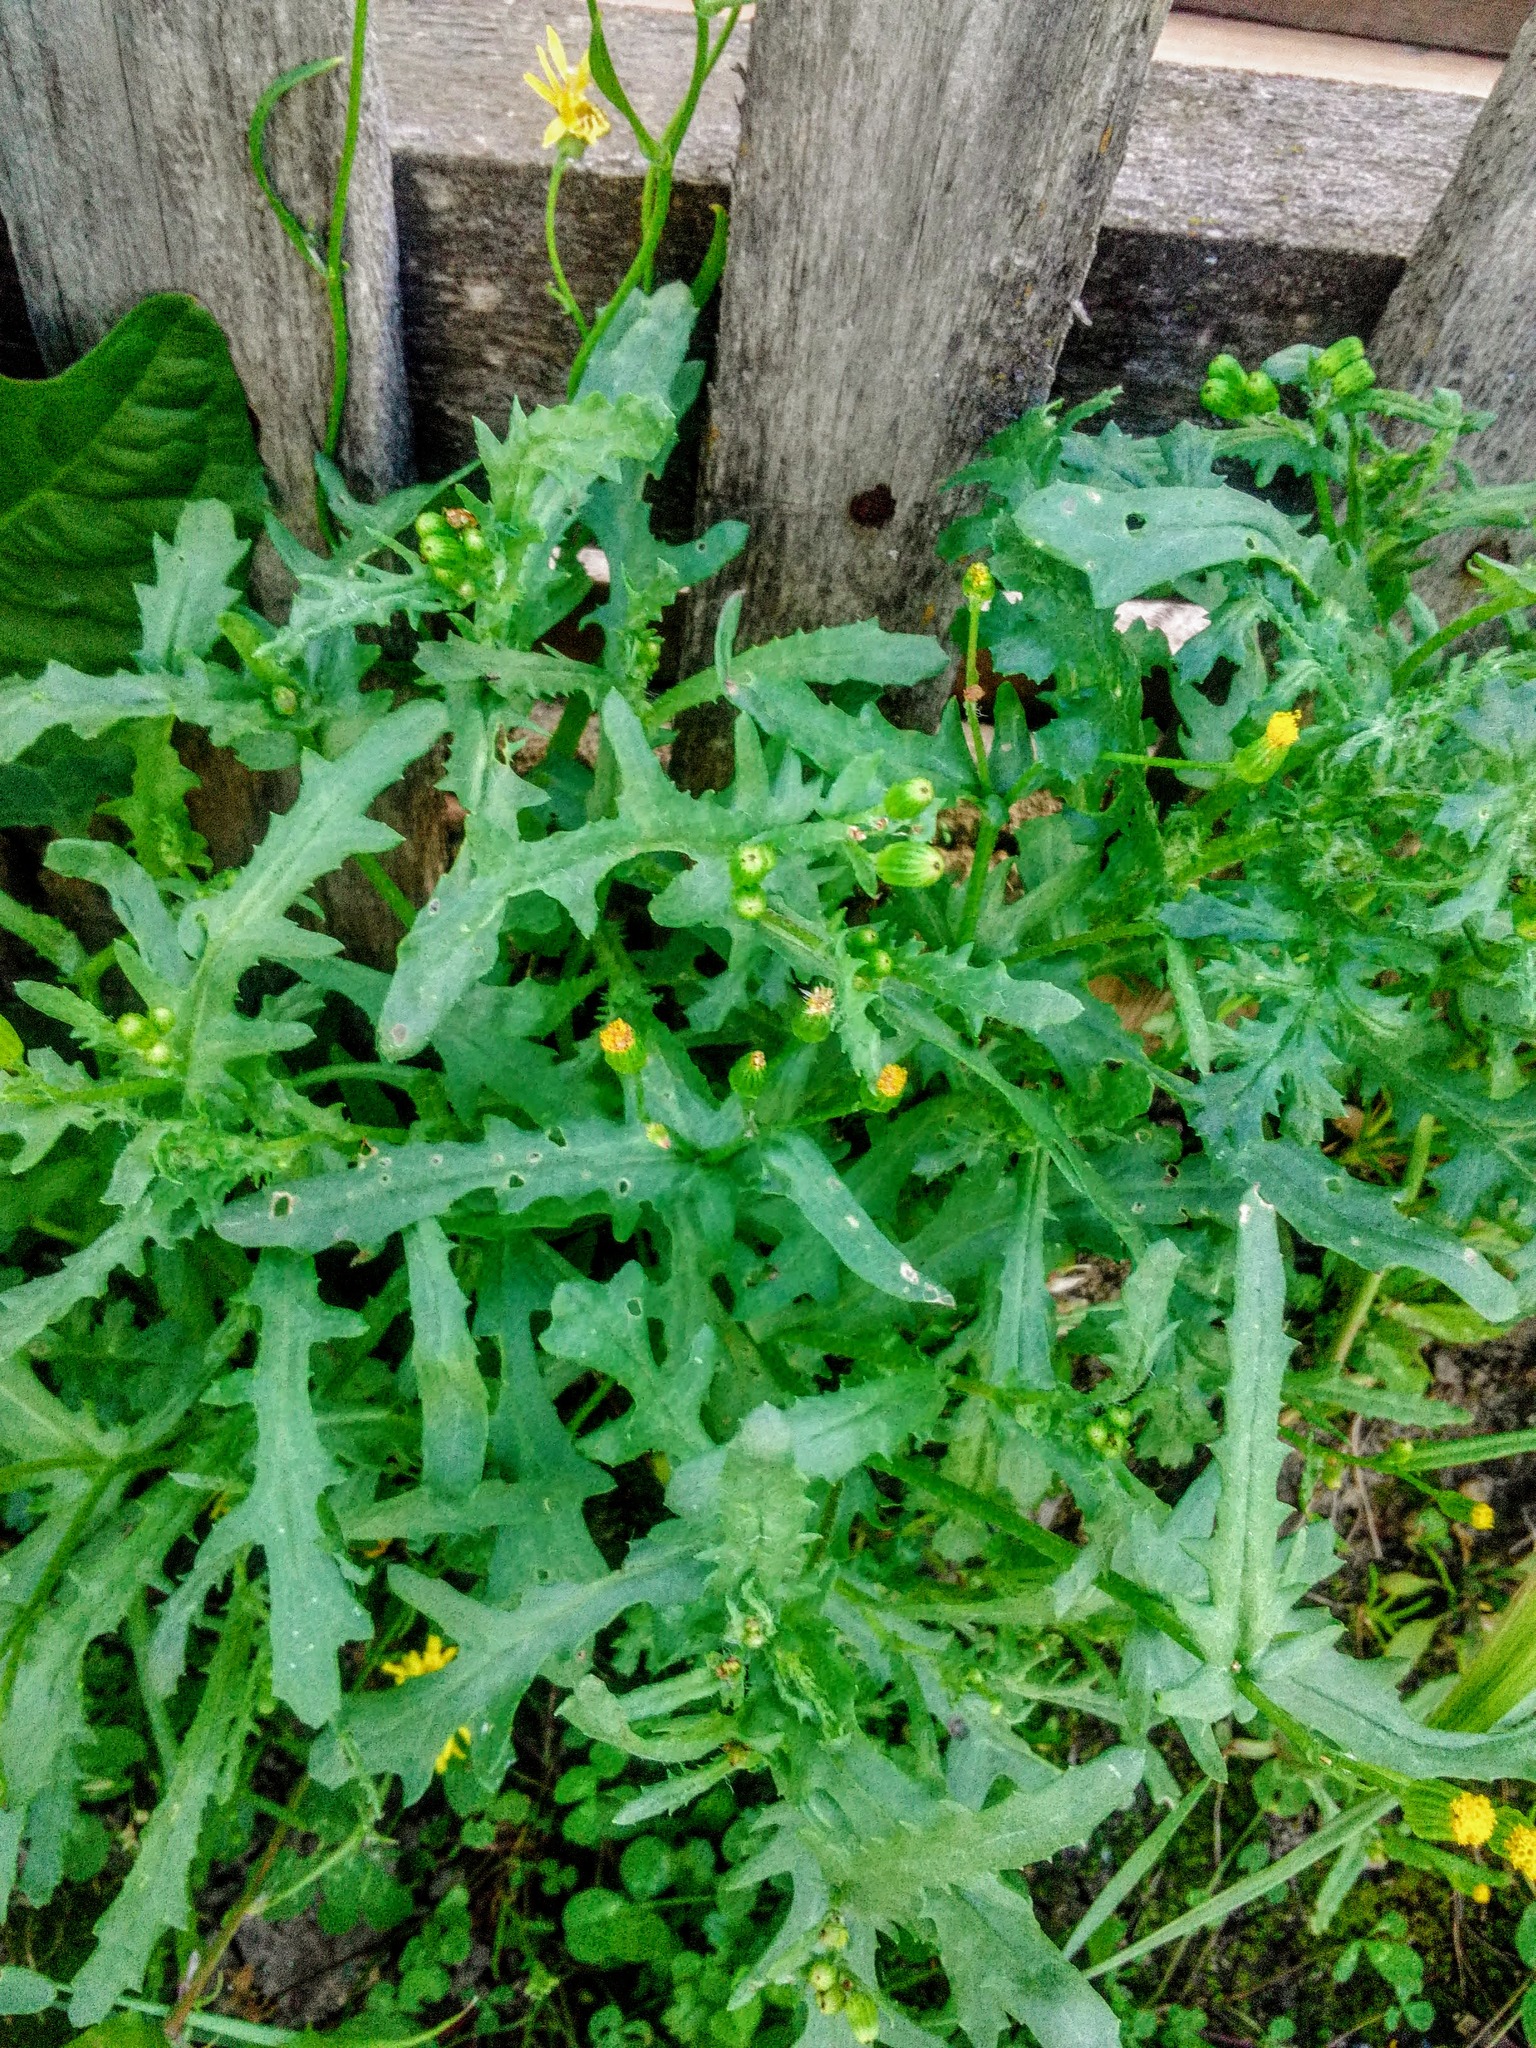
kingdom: Plantae
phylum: Tracheophyta
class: Magnoliopsida
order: Asterales
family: Asteraceae
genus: Senecio
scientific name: Senecio dubitabilis
